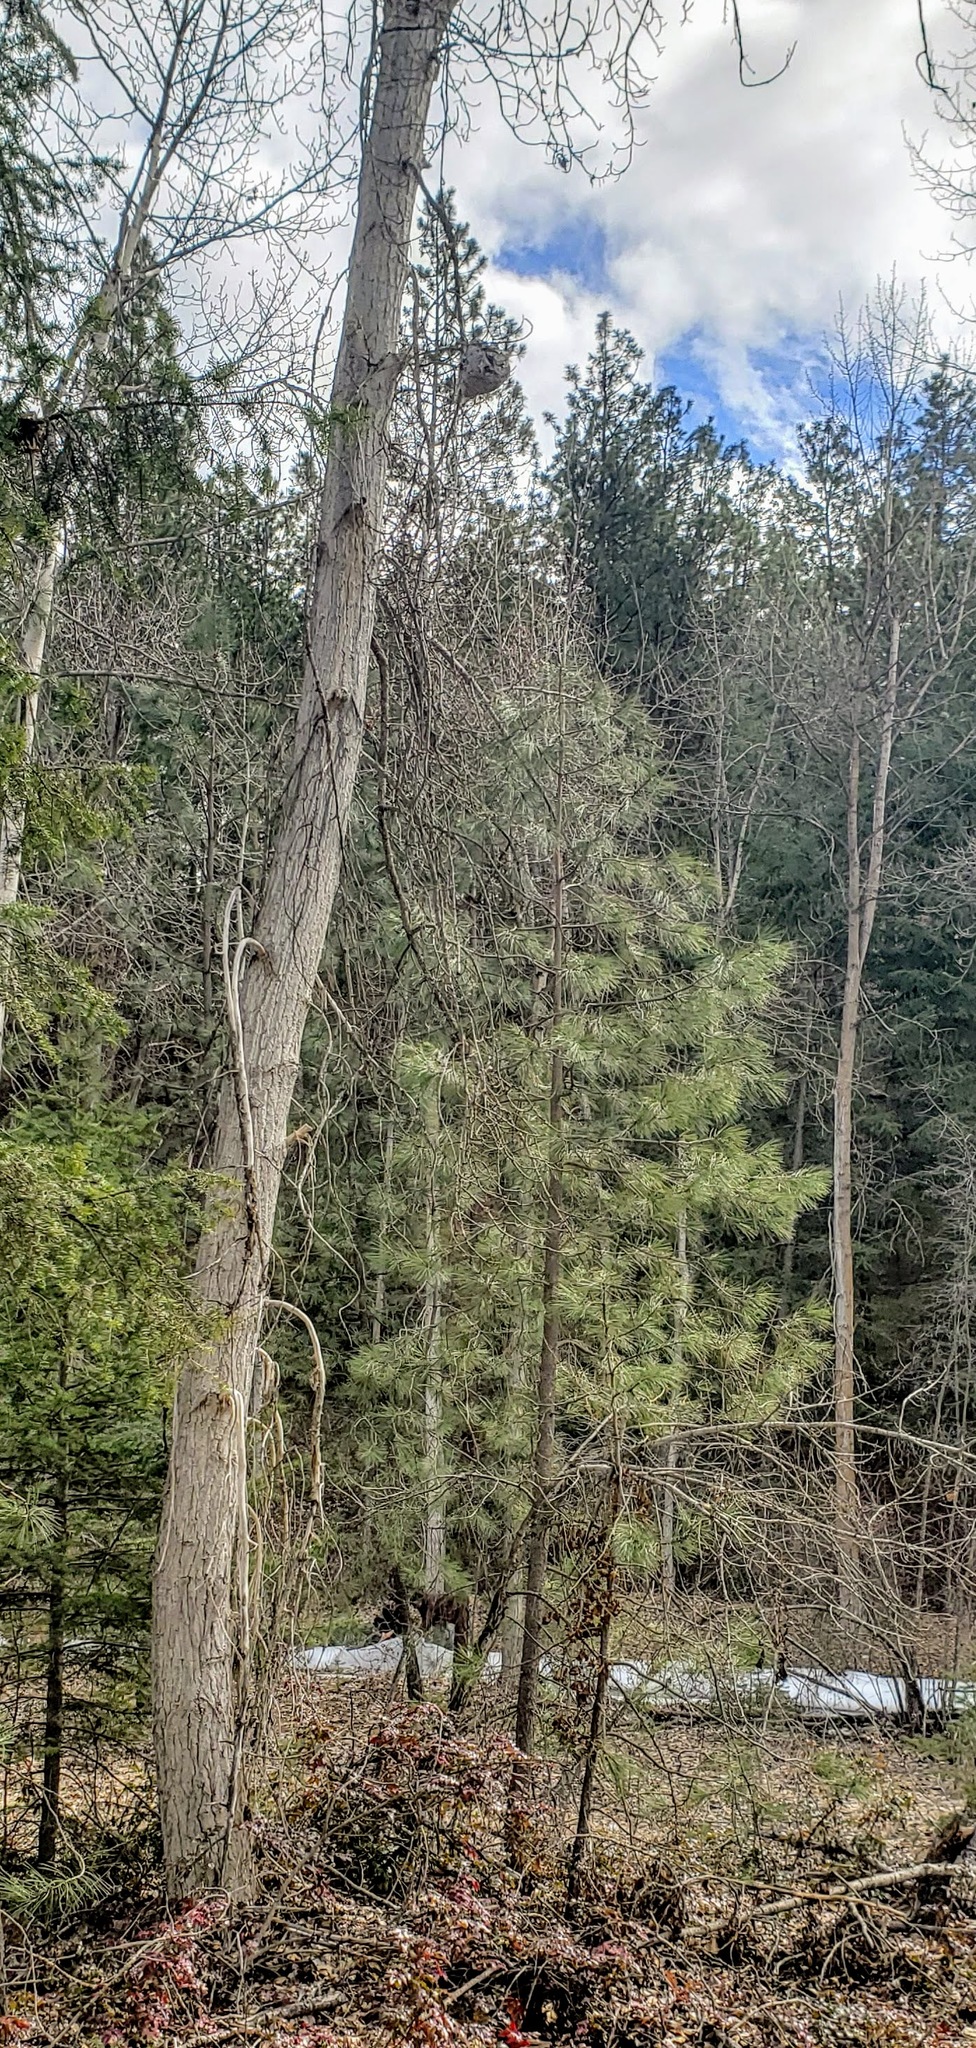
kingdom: Animalia
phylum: Arthropoda
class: Insecta
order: Hymenoptera
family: Vespidae
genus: Dolichovespula
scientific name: Dolichovespula
